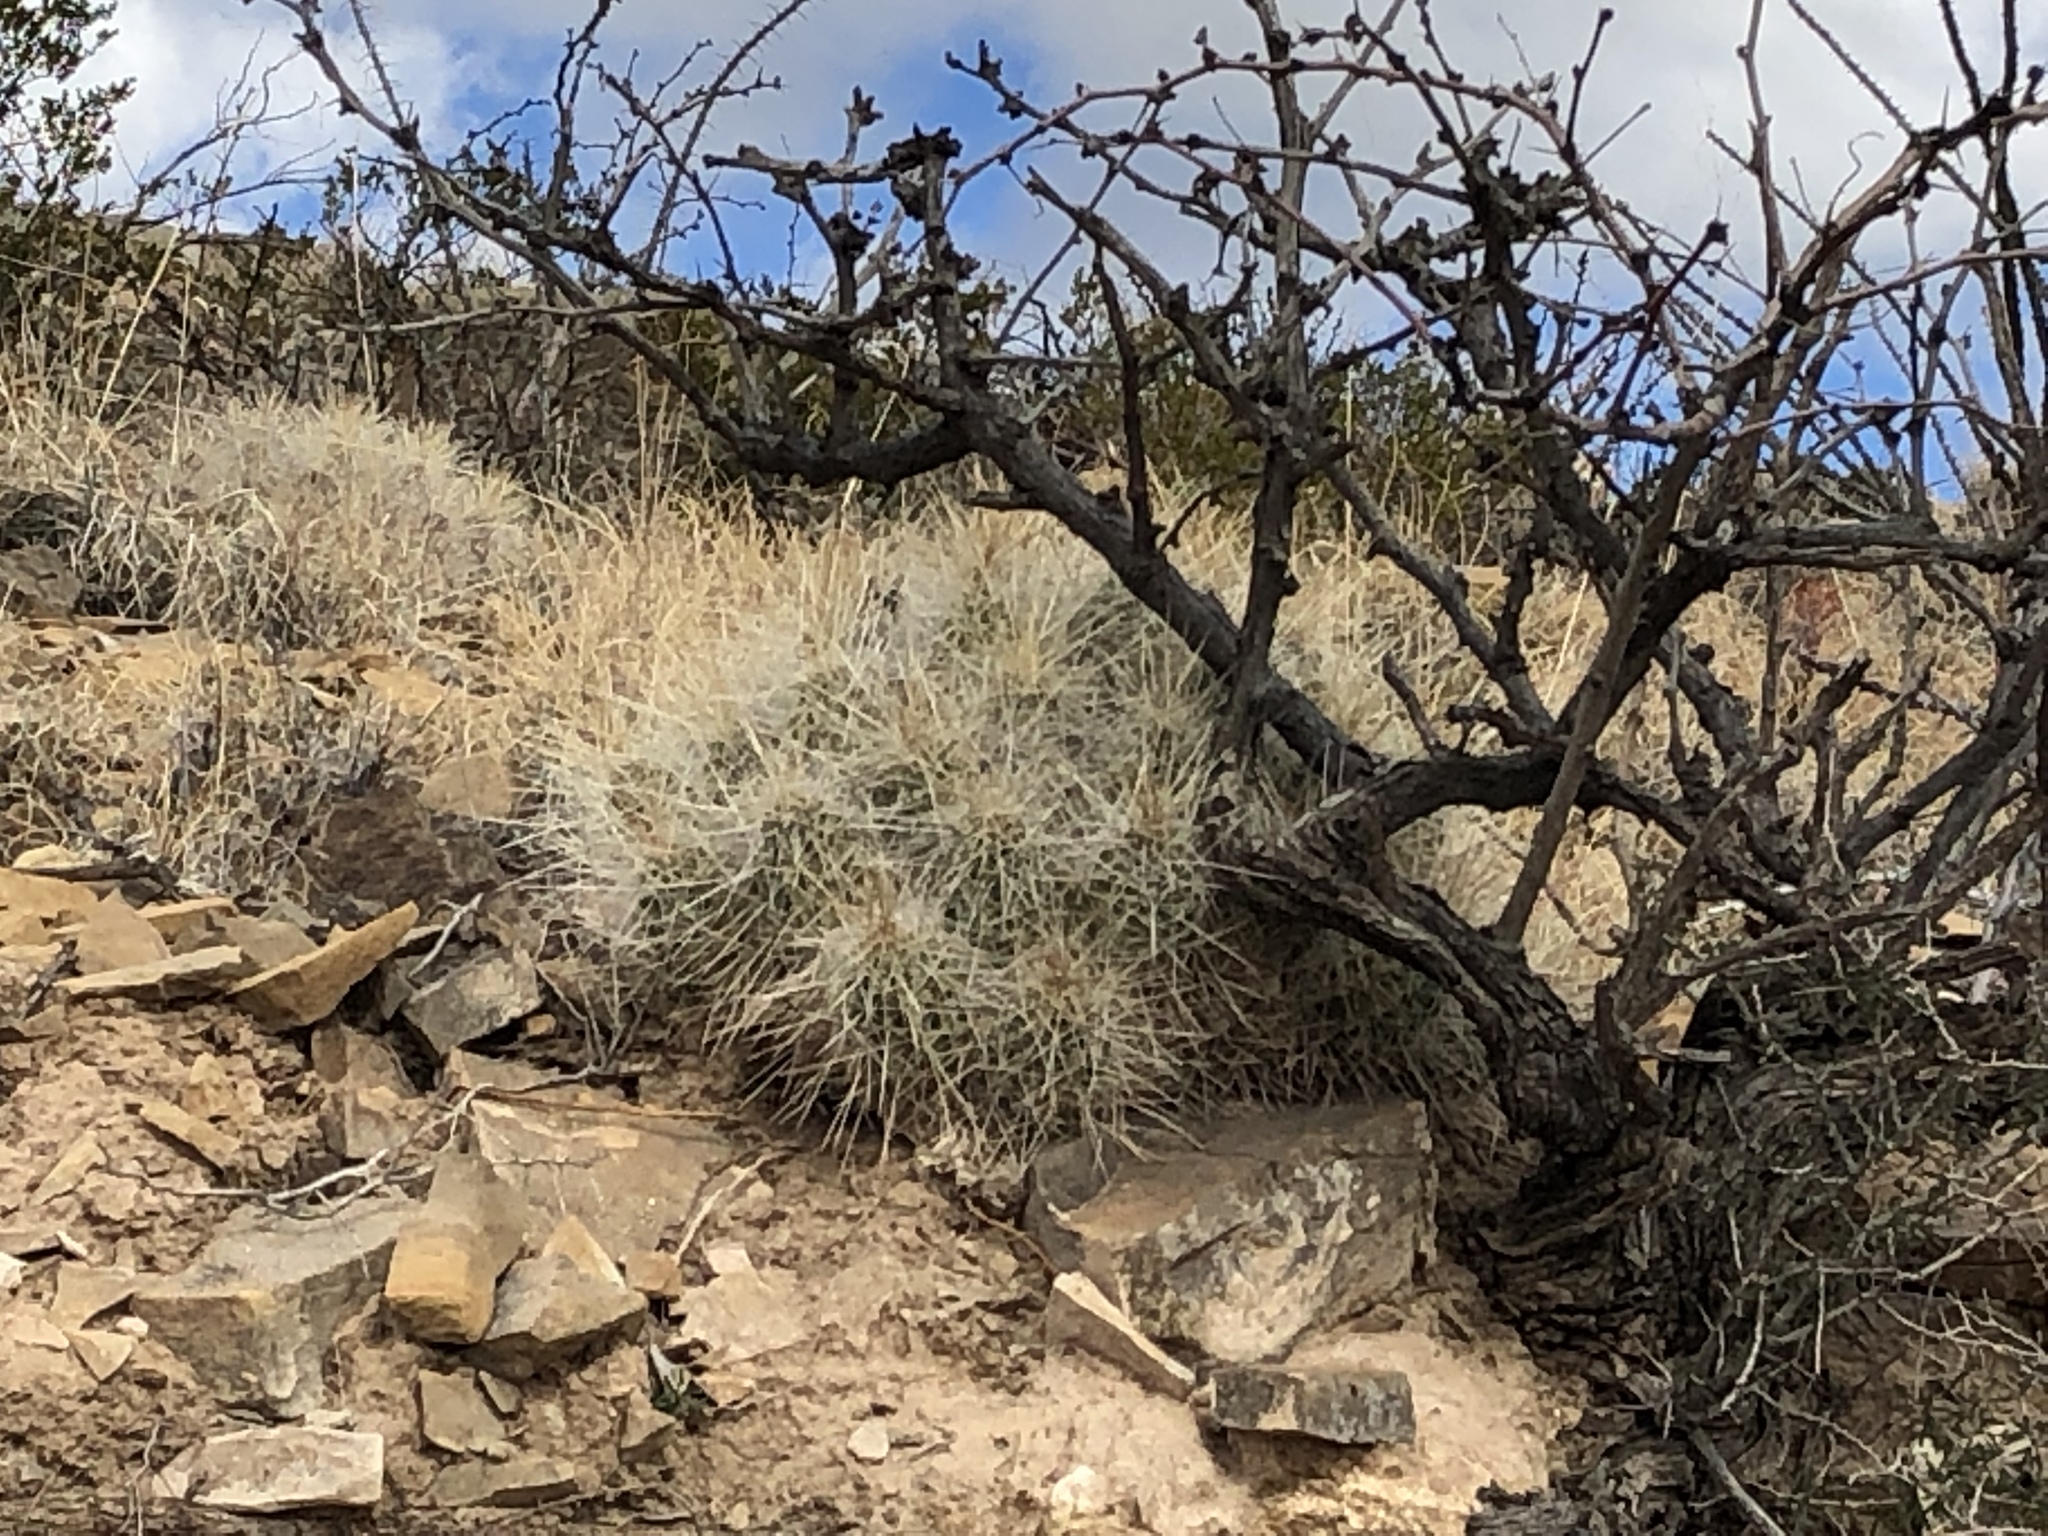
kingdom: Plantae
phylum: Tracheophyta
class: Magnoliopsida
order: Caryophyllales
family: Cactaceae
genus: Echinocereus
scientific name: Echinocereus stramineus
